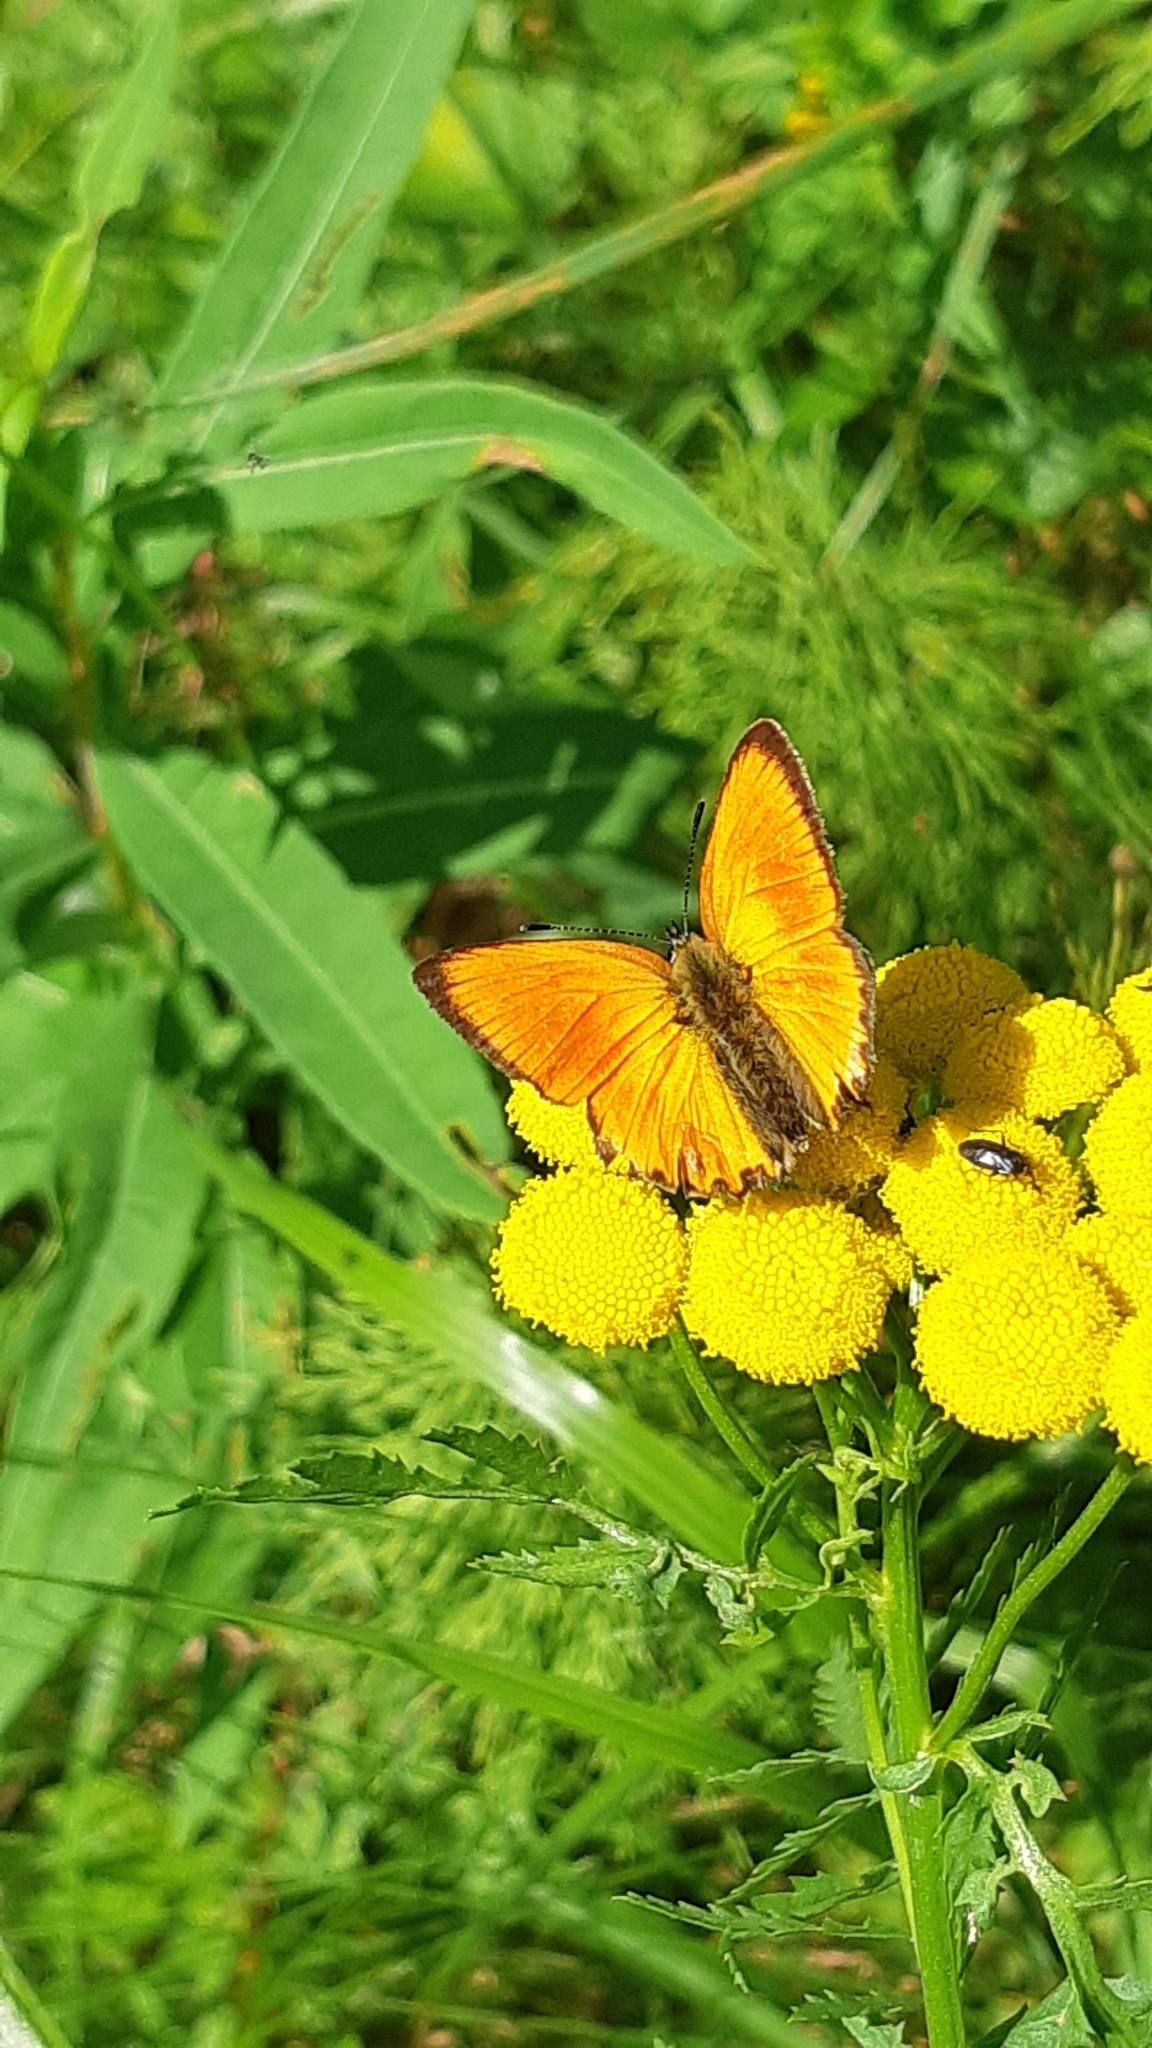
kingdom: Animalia
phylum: Arthropoda
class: Insecta
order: Lepidoptera
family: Lycaenidae
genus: Lycaena
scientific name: Lycaena virgaureae
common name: Scarce copper
